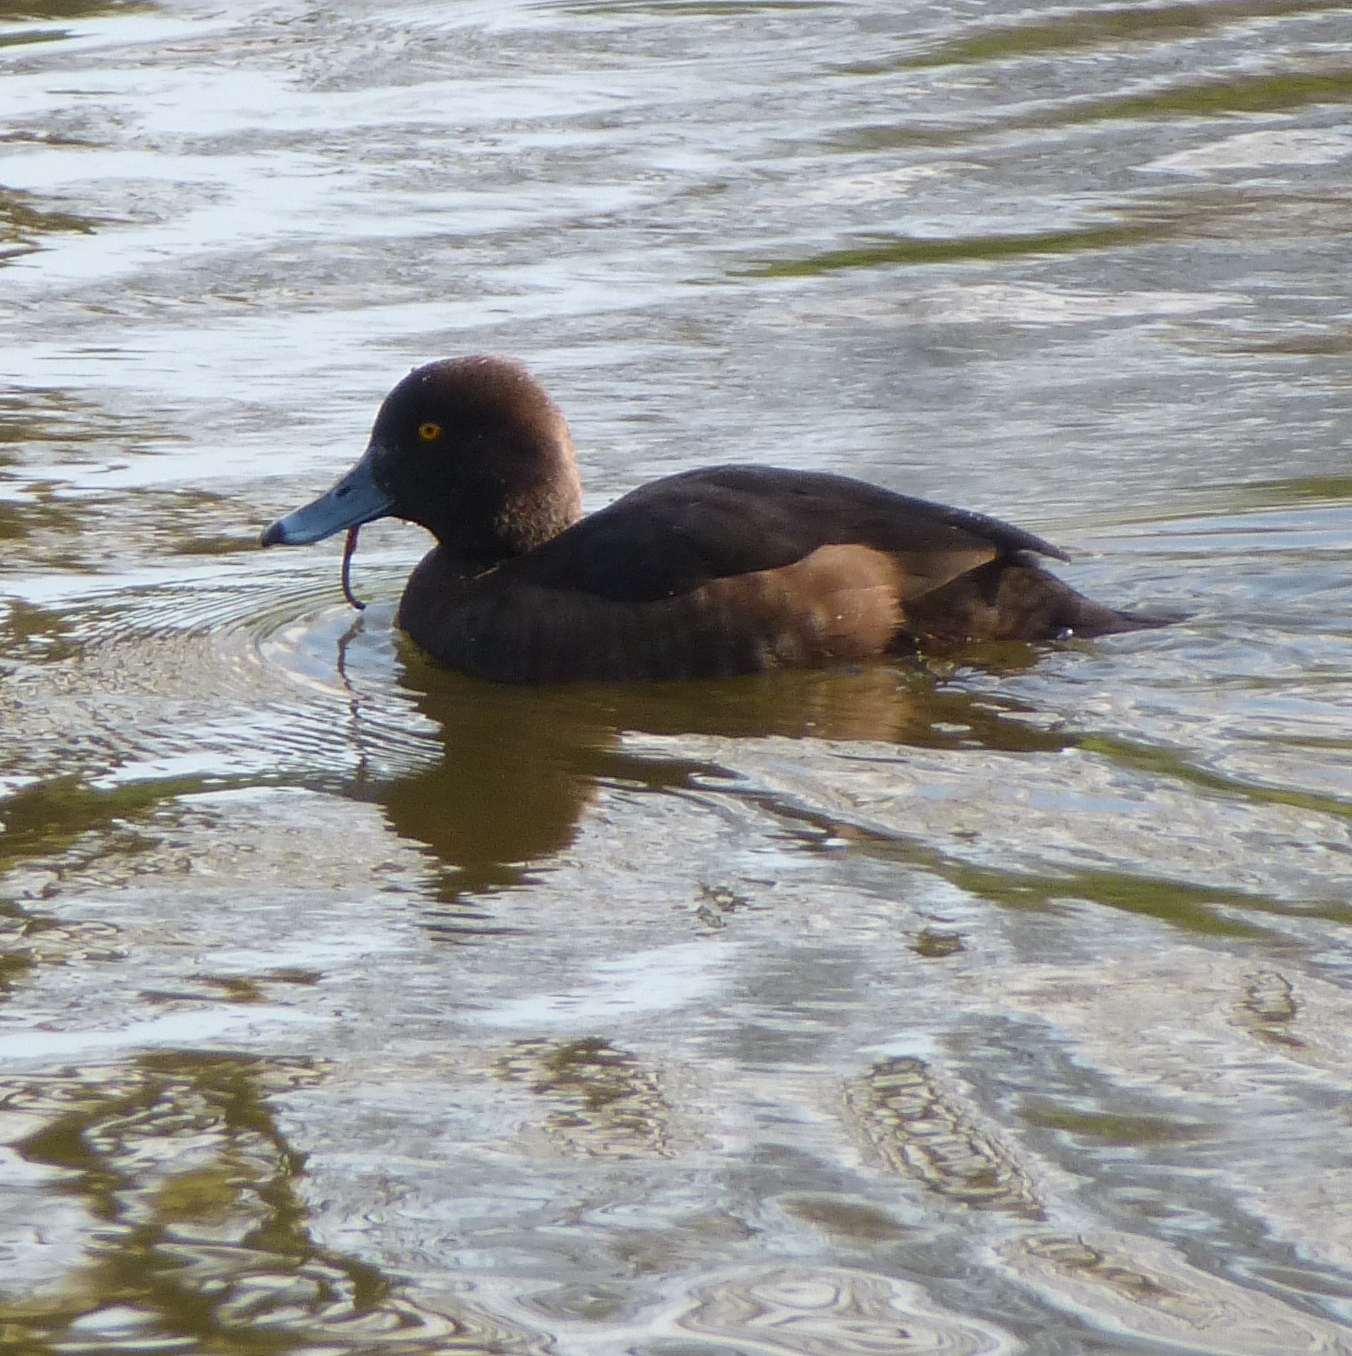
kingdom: Animalia
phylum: Chordata
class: Aves
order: Anseriformes
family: Anatidae
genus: Aythya
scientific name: Aythya fuligula
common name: Tufted duck
